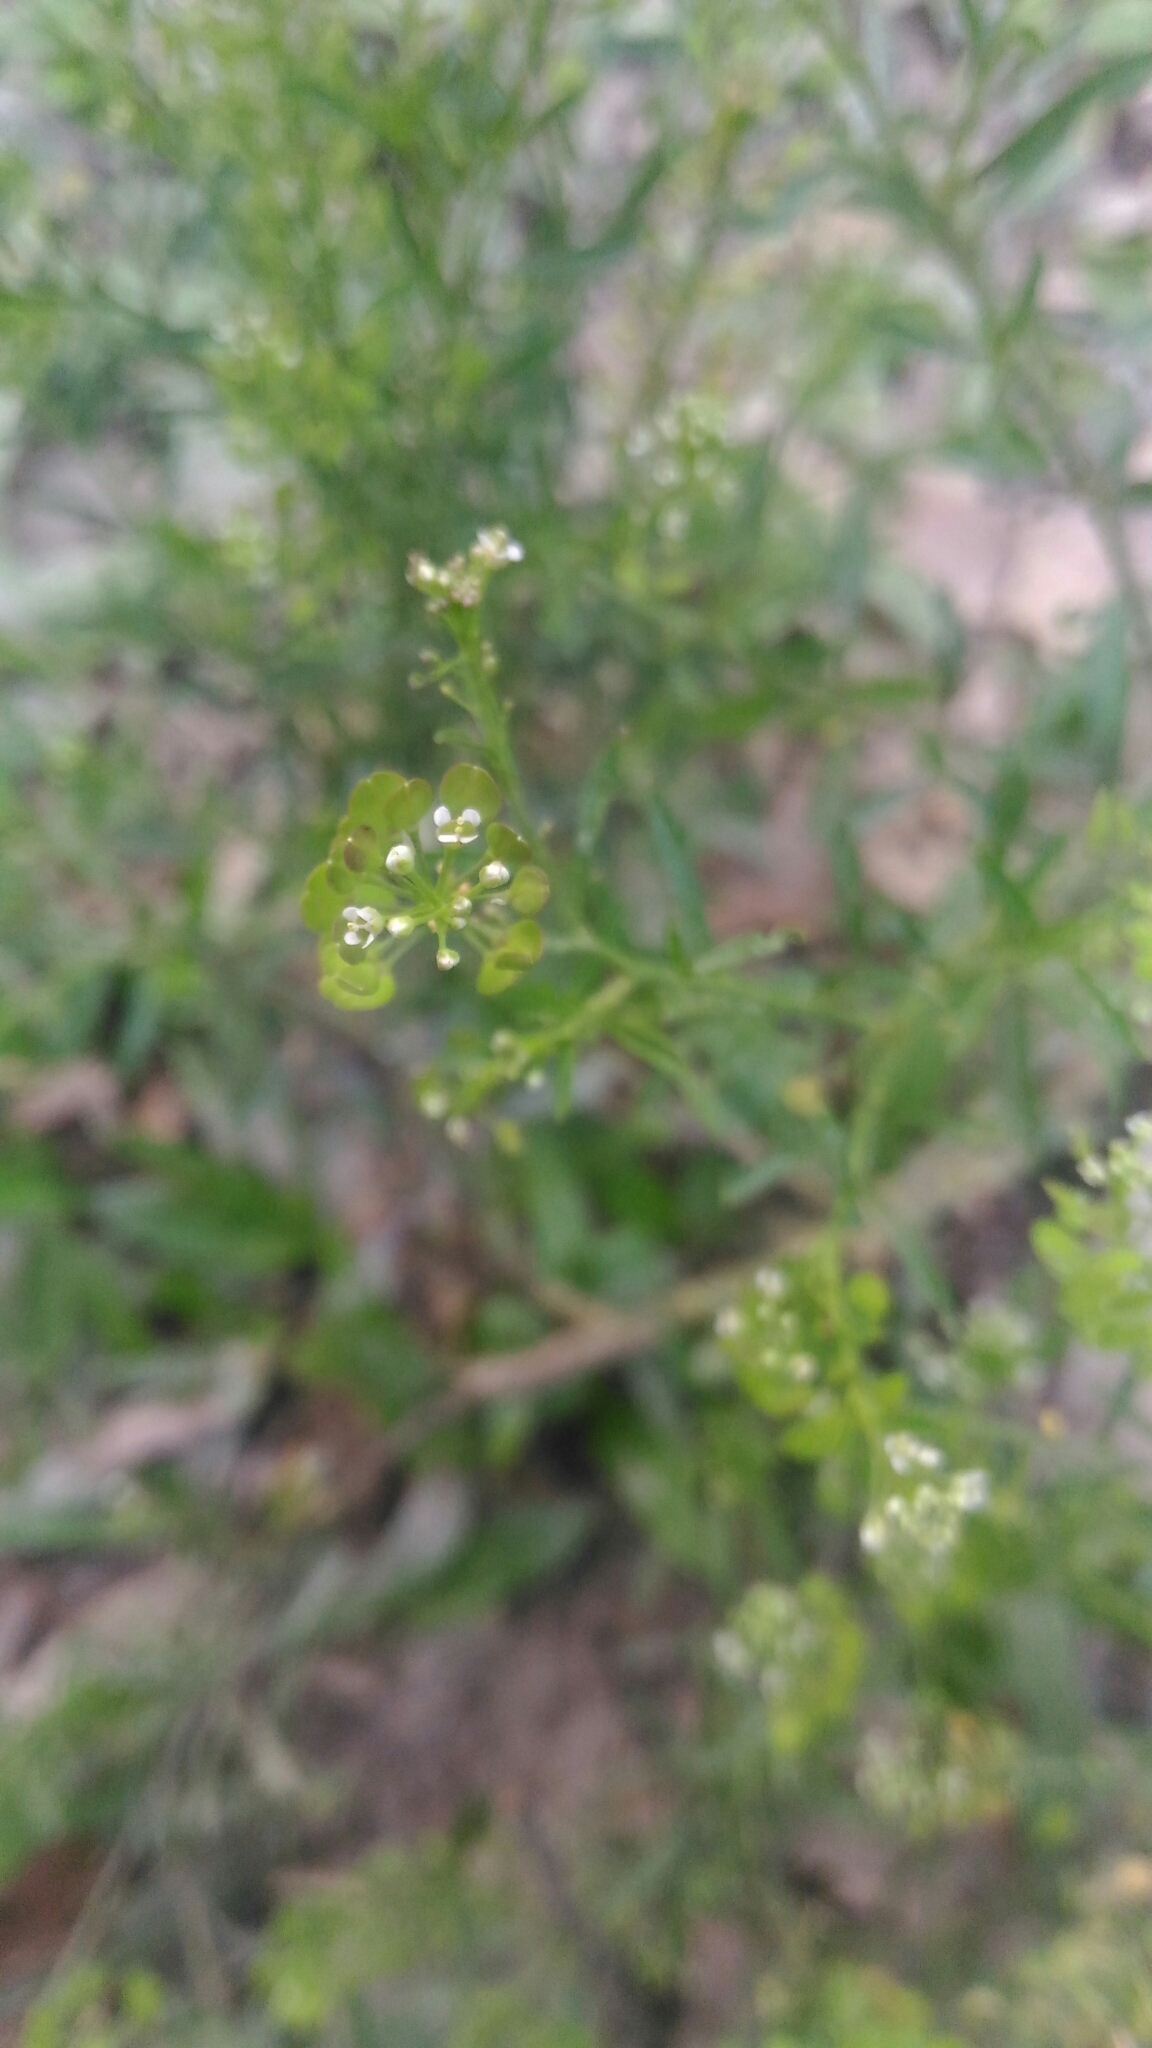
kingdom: Plantae
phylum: Tracheophyta
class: Magnoliopsida
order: Brassicales
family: Brassicaceae
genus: Lepidium
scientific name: Lepidium virginicum
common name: Least pepperwort
